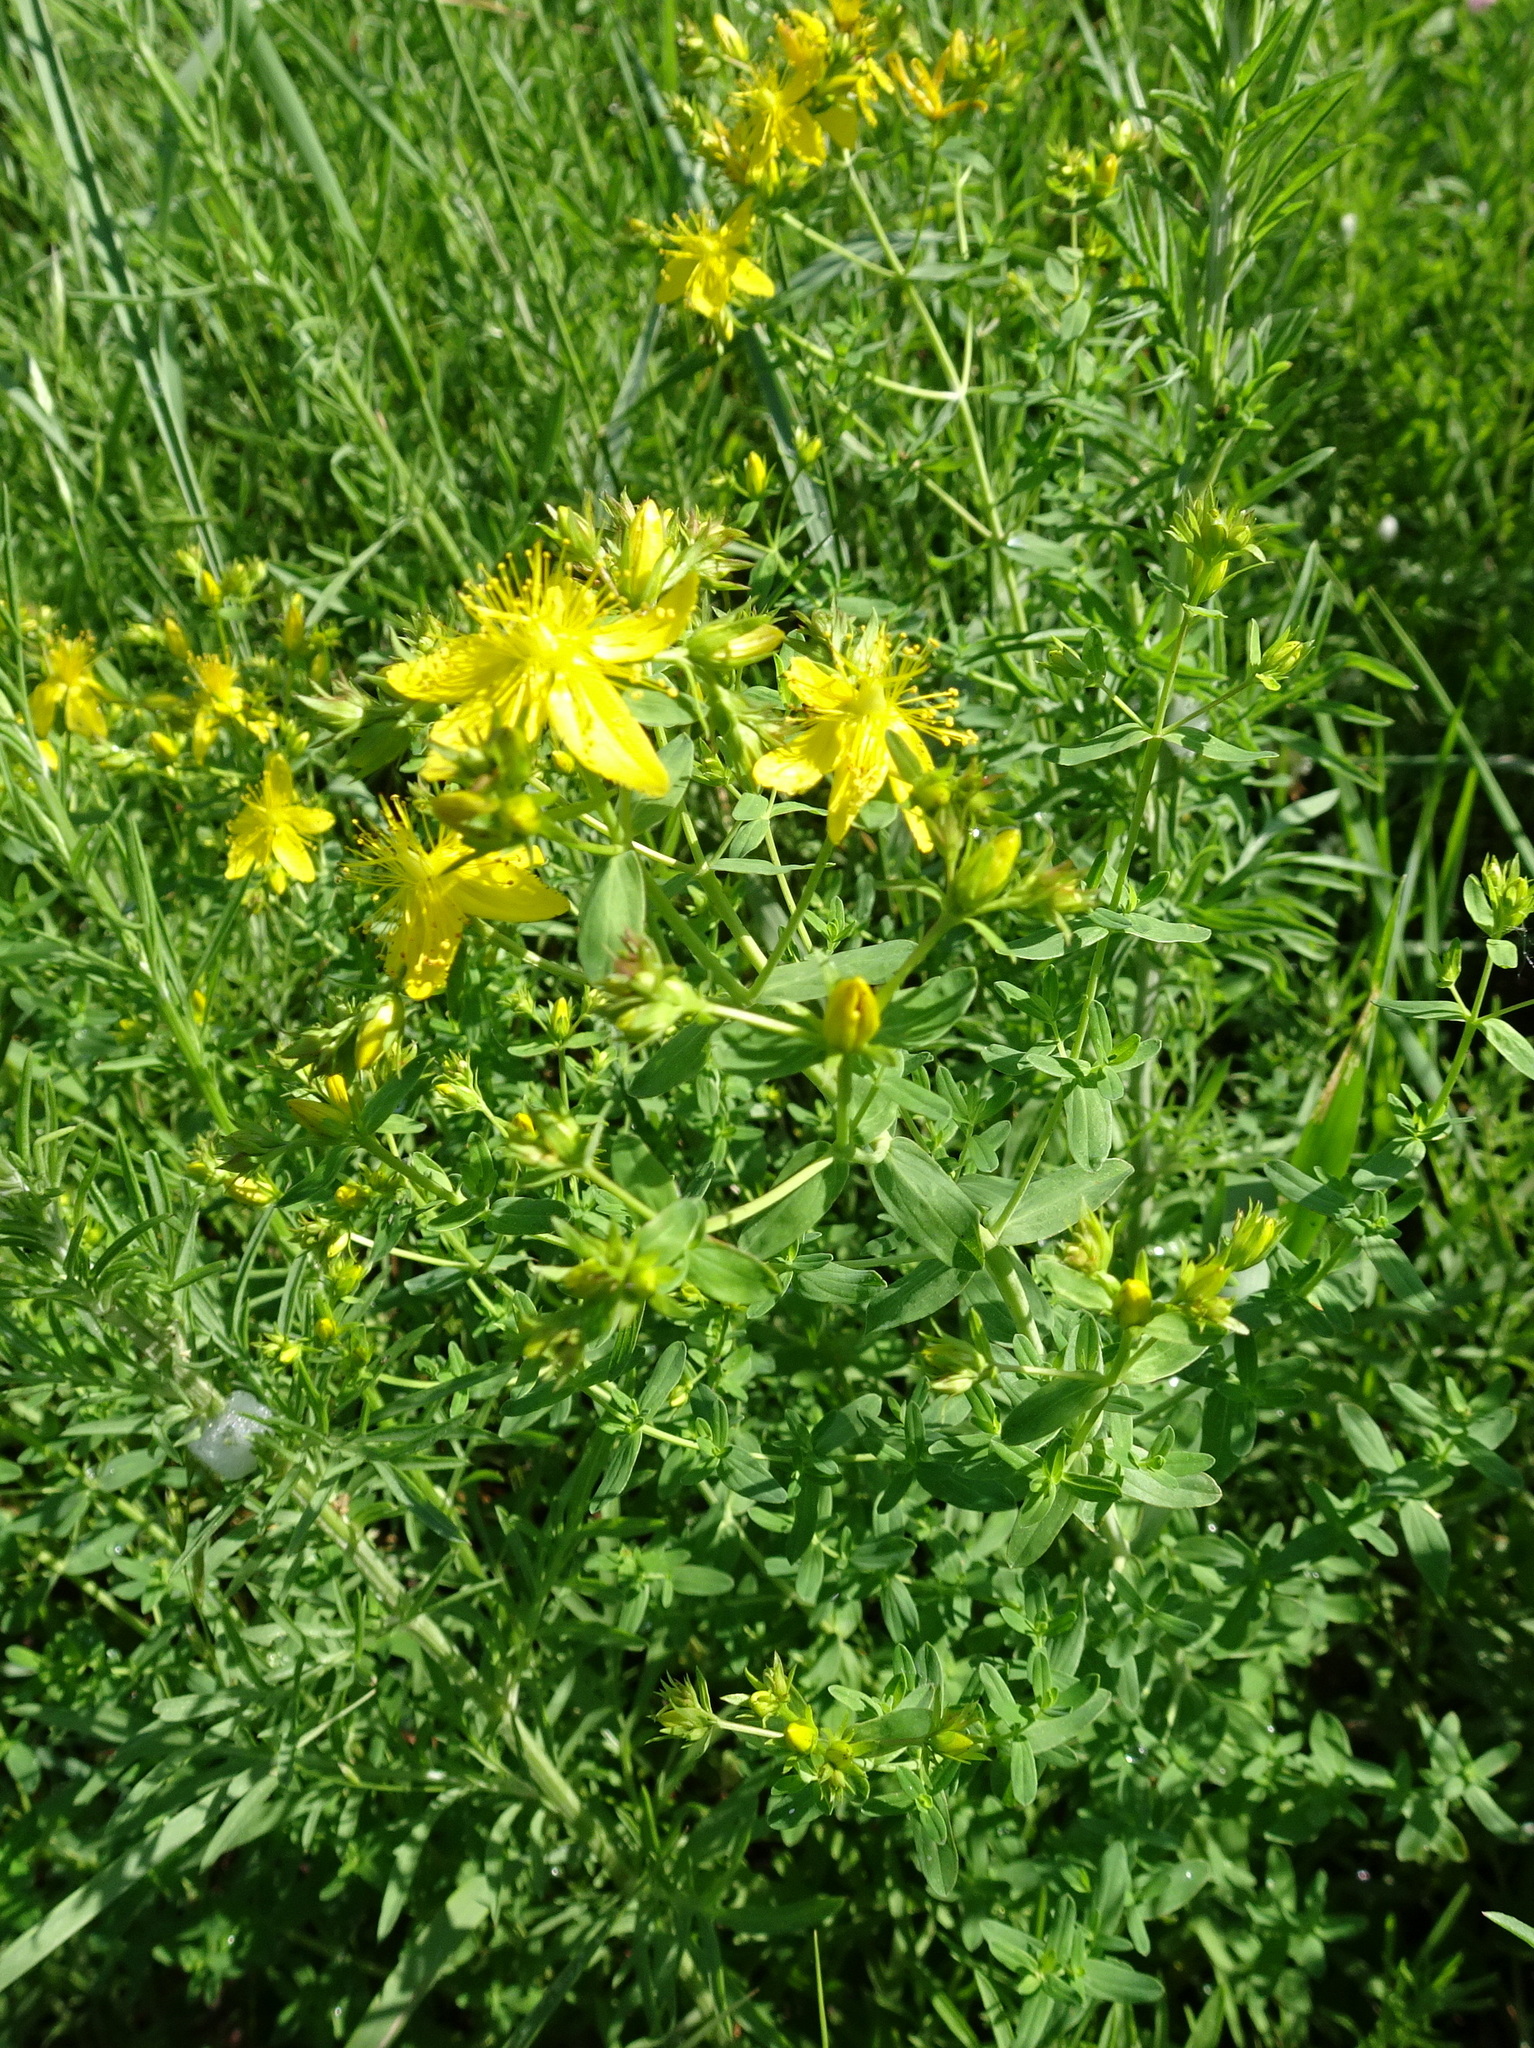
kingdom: Plantae
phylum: Tracheophyta
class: Magnoliopsida
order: Malpighiales
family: Hypericaceae
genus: Hypericum
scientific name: Hypericum perforatum
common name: Common st. johnswort
